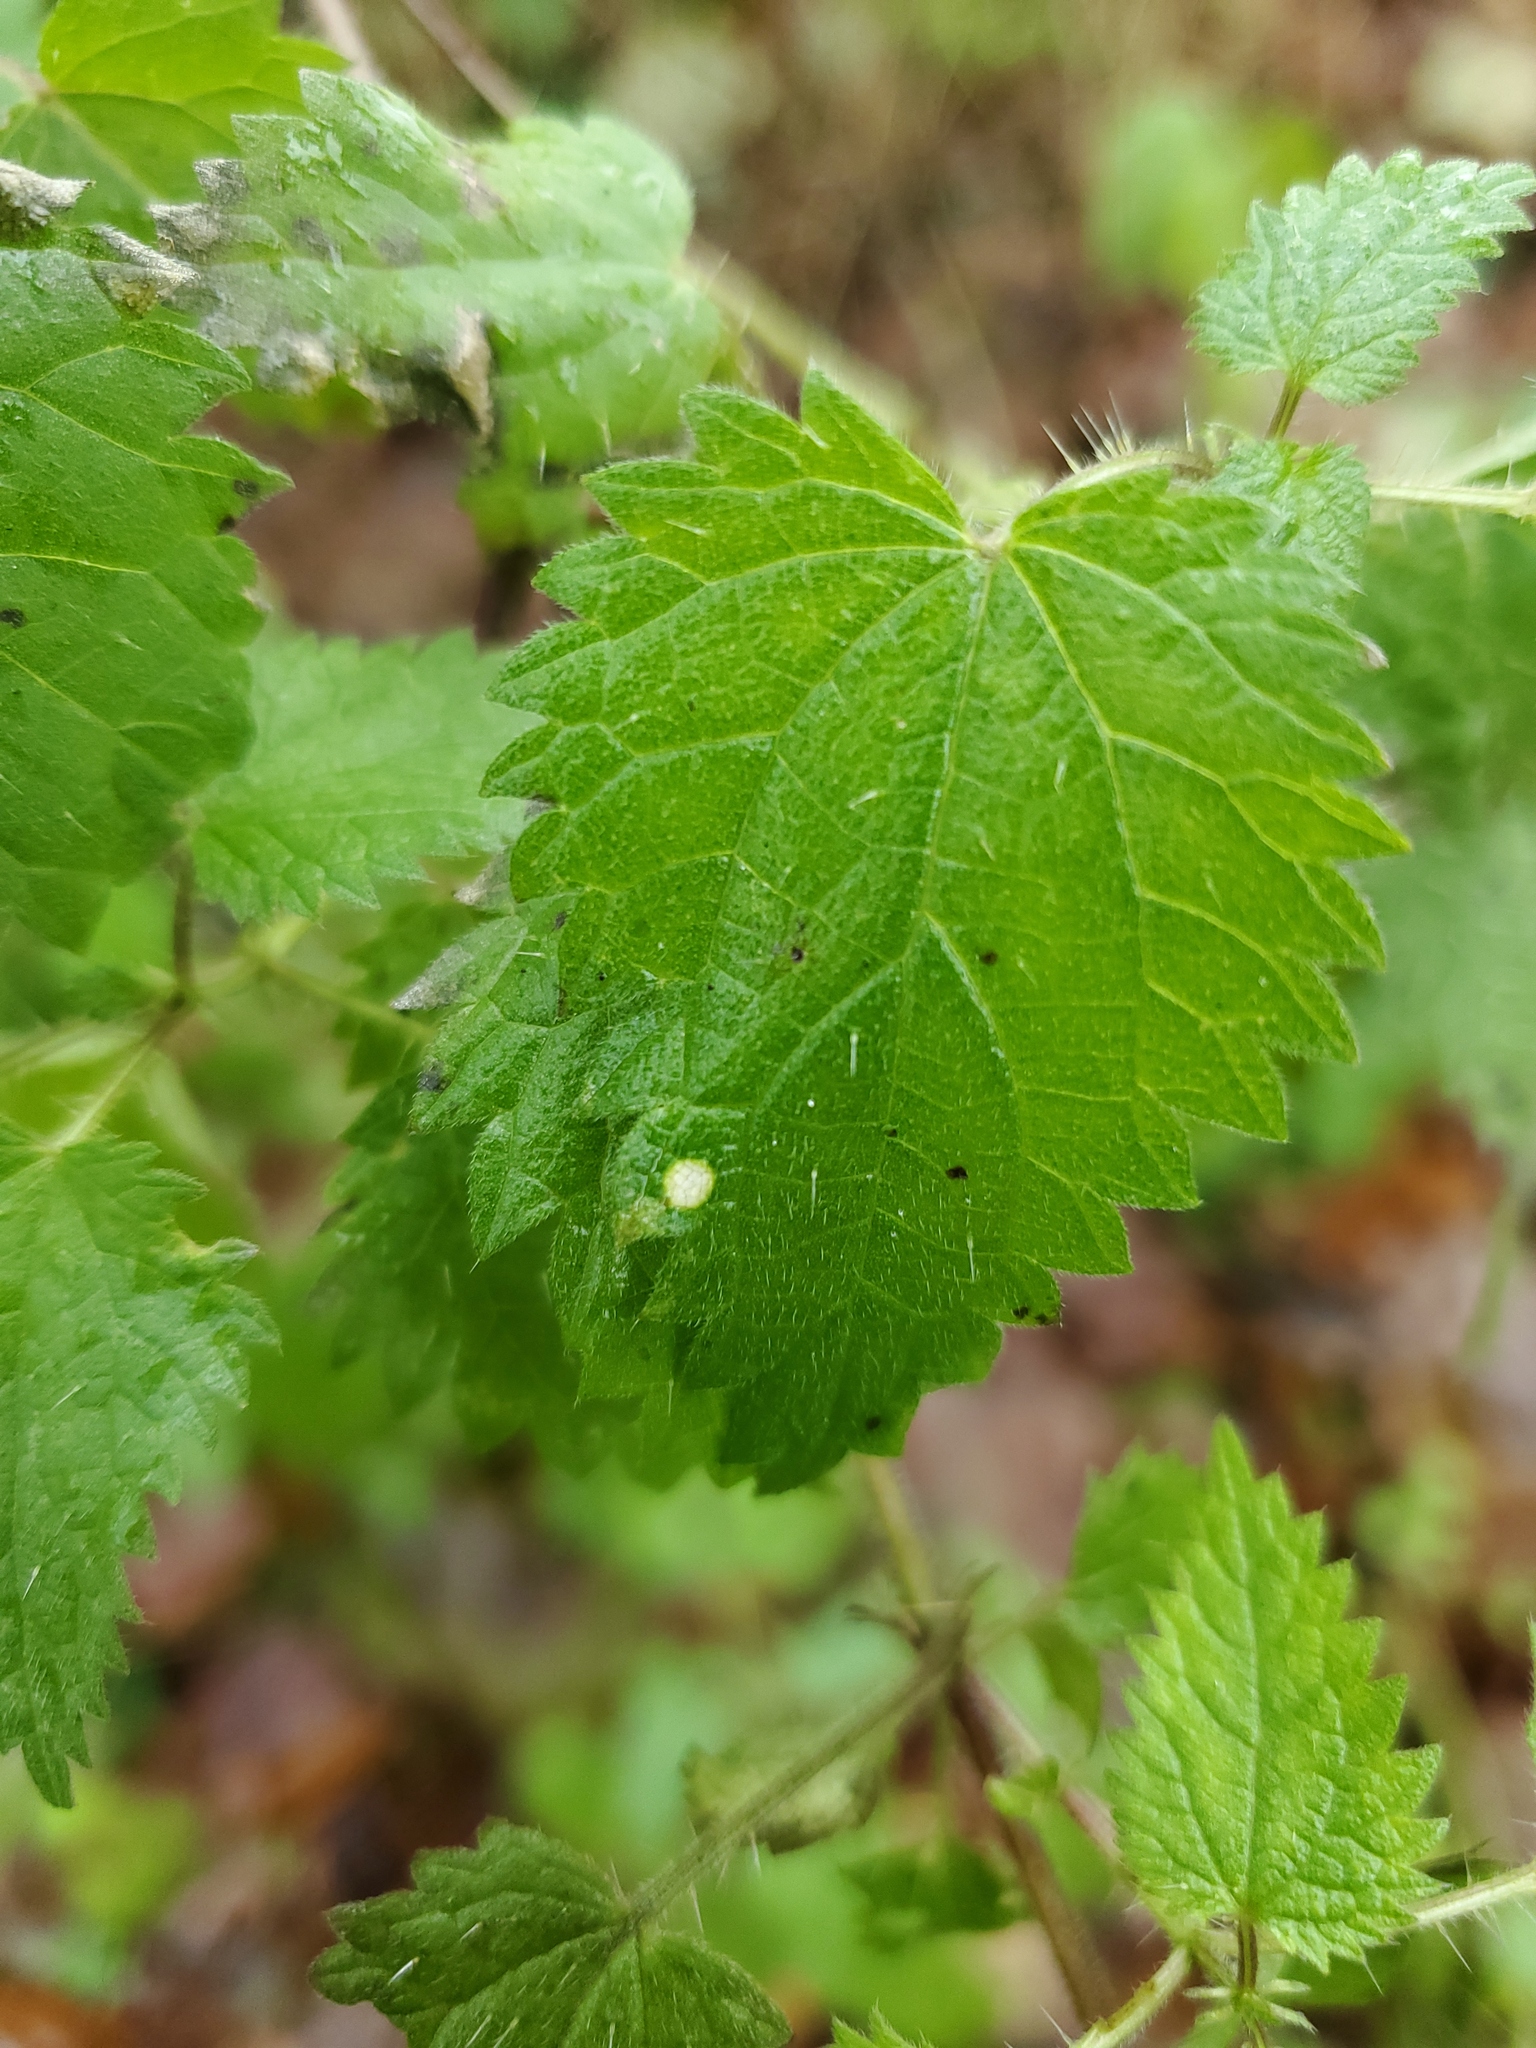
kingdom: Plantae
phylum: Tracheophyta
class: Magnoliopsida
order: Rosales
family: Urticaceae
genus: Urtica
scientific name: Urtica dioica
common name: Common nettle
